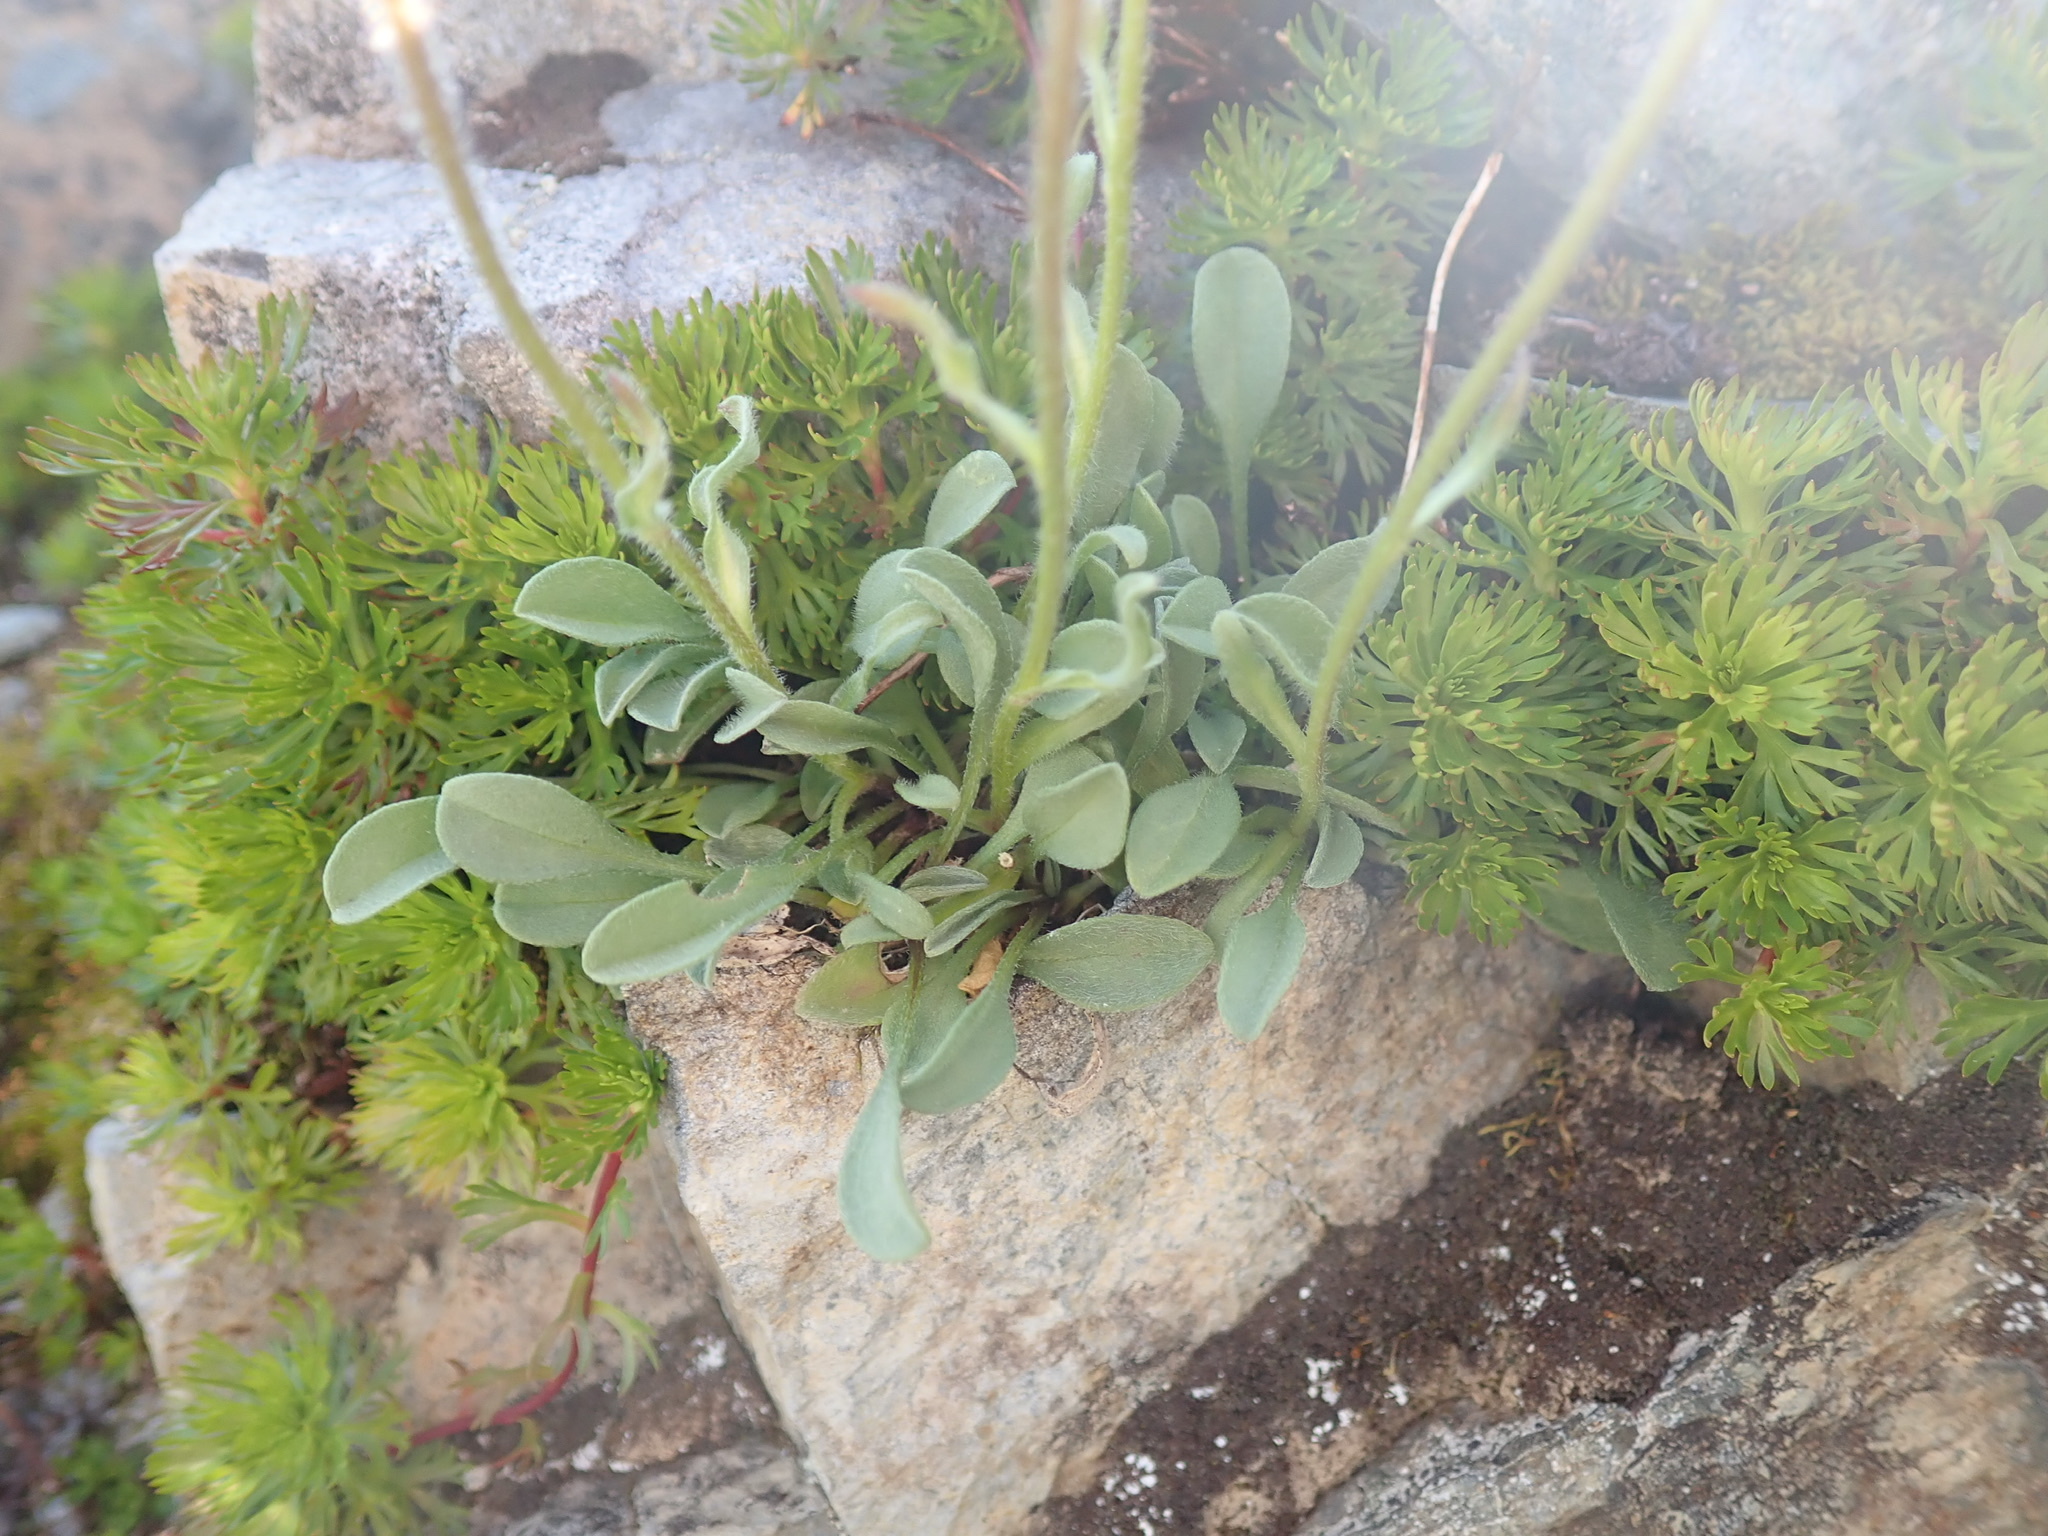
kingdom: Plantae
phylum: Tracheophyta
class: Magnoliopsida
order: Asterales
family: Asteraceae
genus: Erigeron
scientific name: Erigeron aureus
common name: Alpine yellow fleabane
